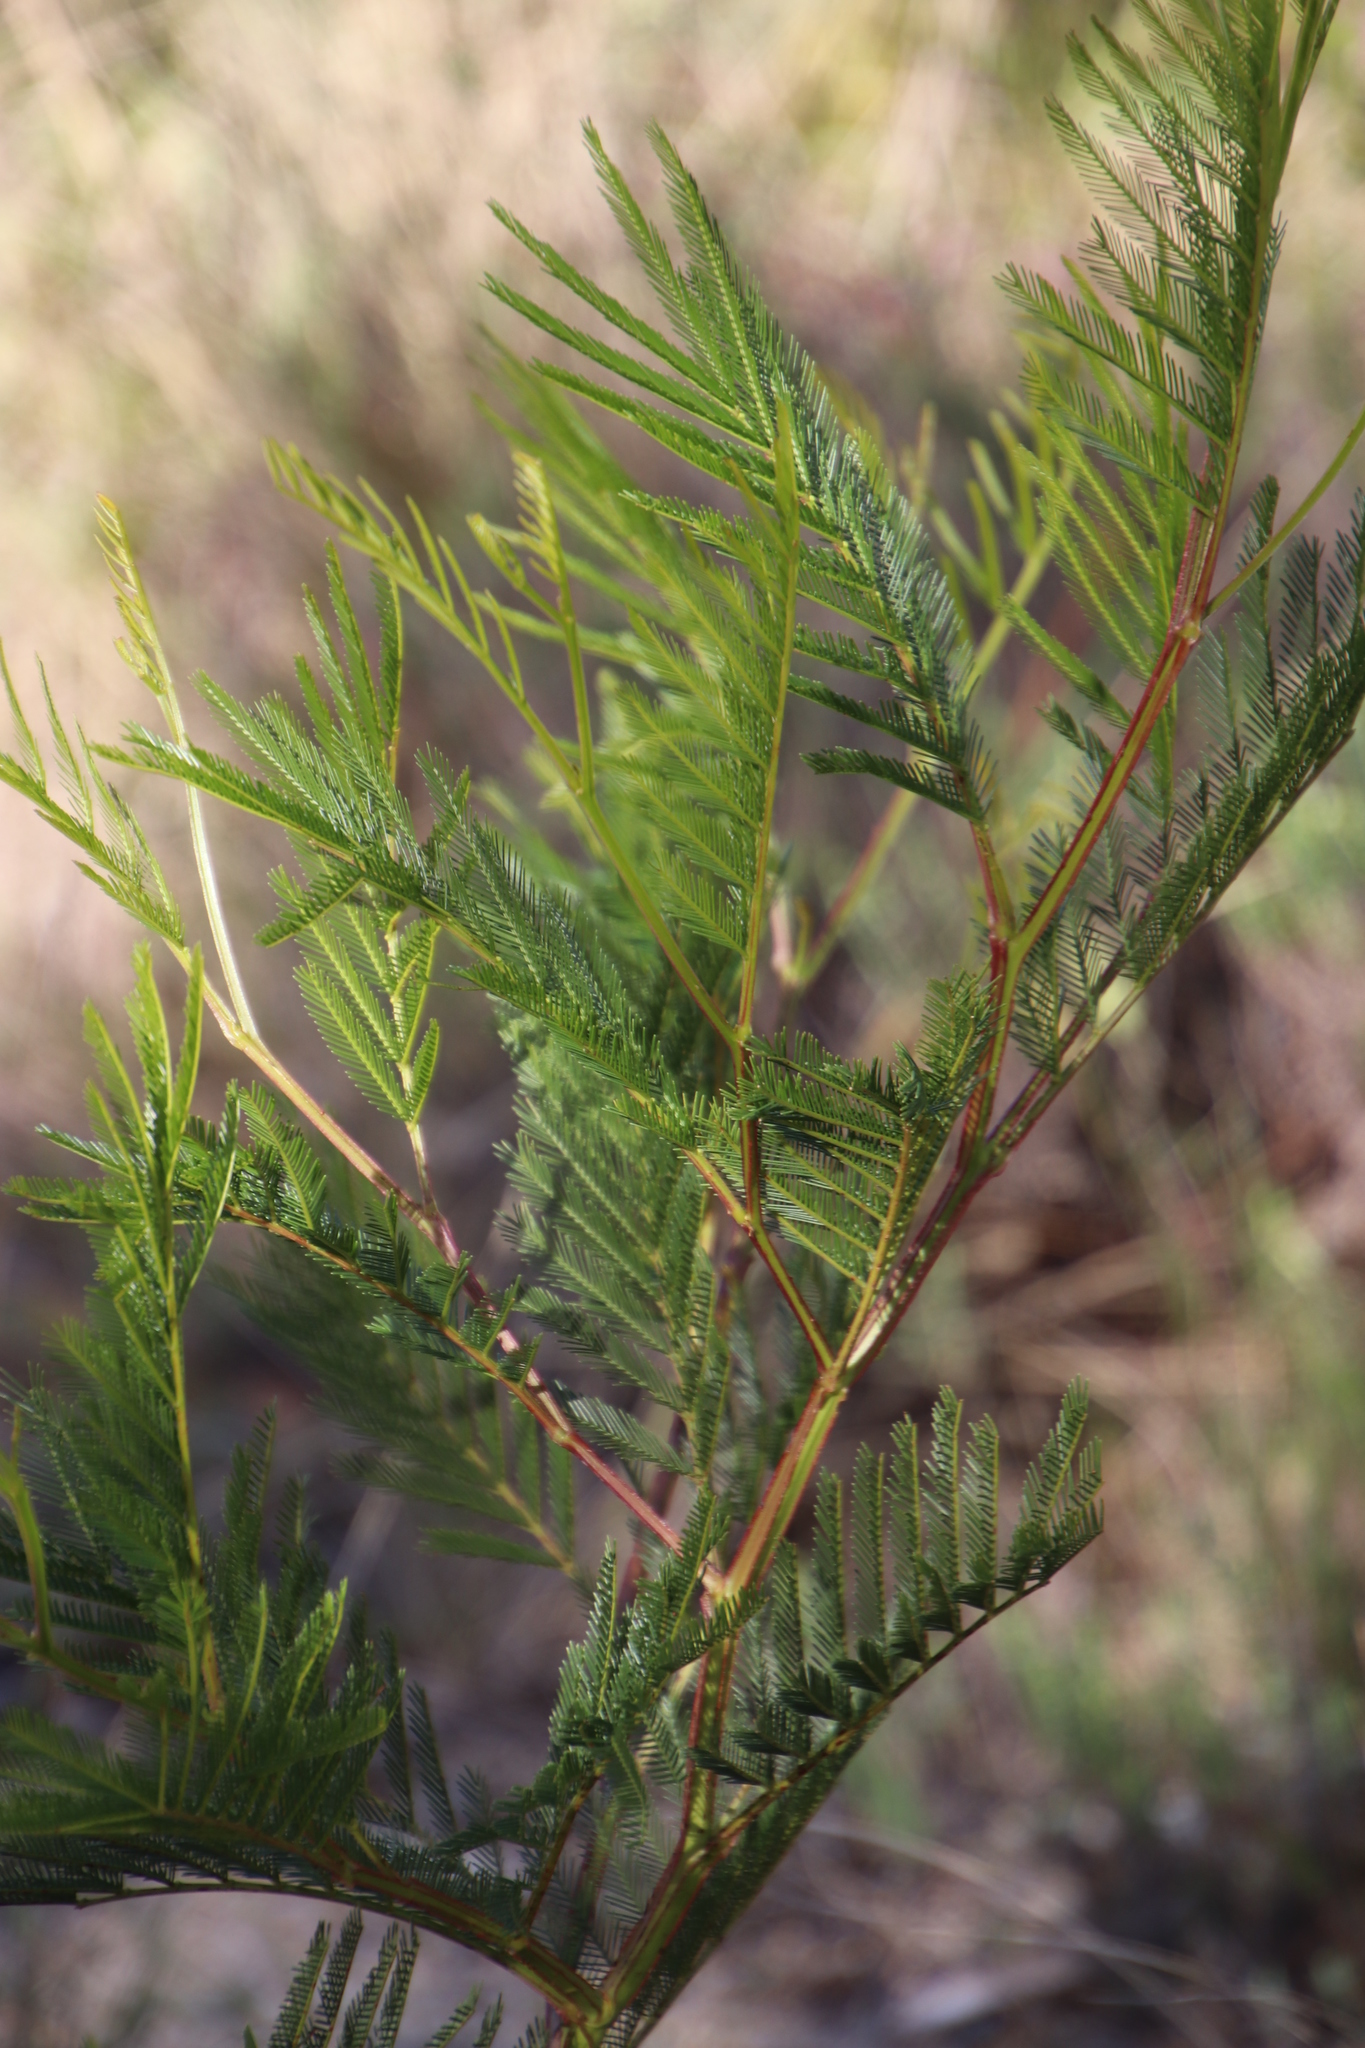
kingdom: Plantae
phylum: Tracheophyta
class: Magnoliopsida
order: Fabales
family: Fabaceae
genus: Acacia
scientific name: Acacia decurrens
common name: Green wattle
